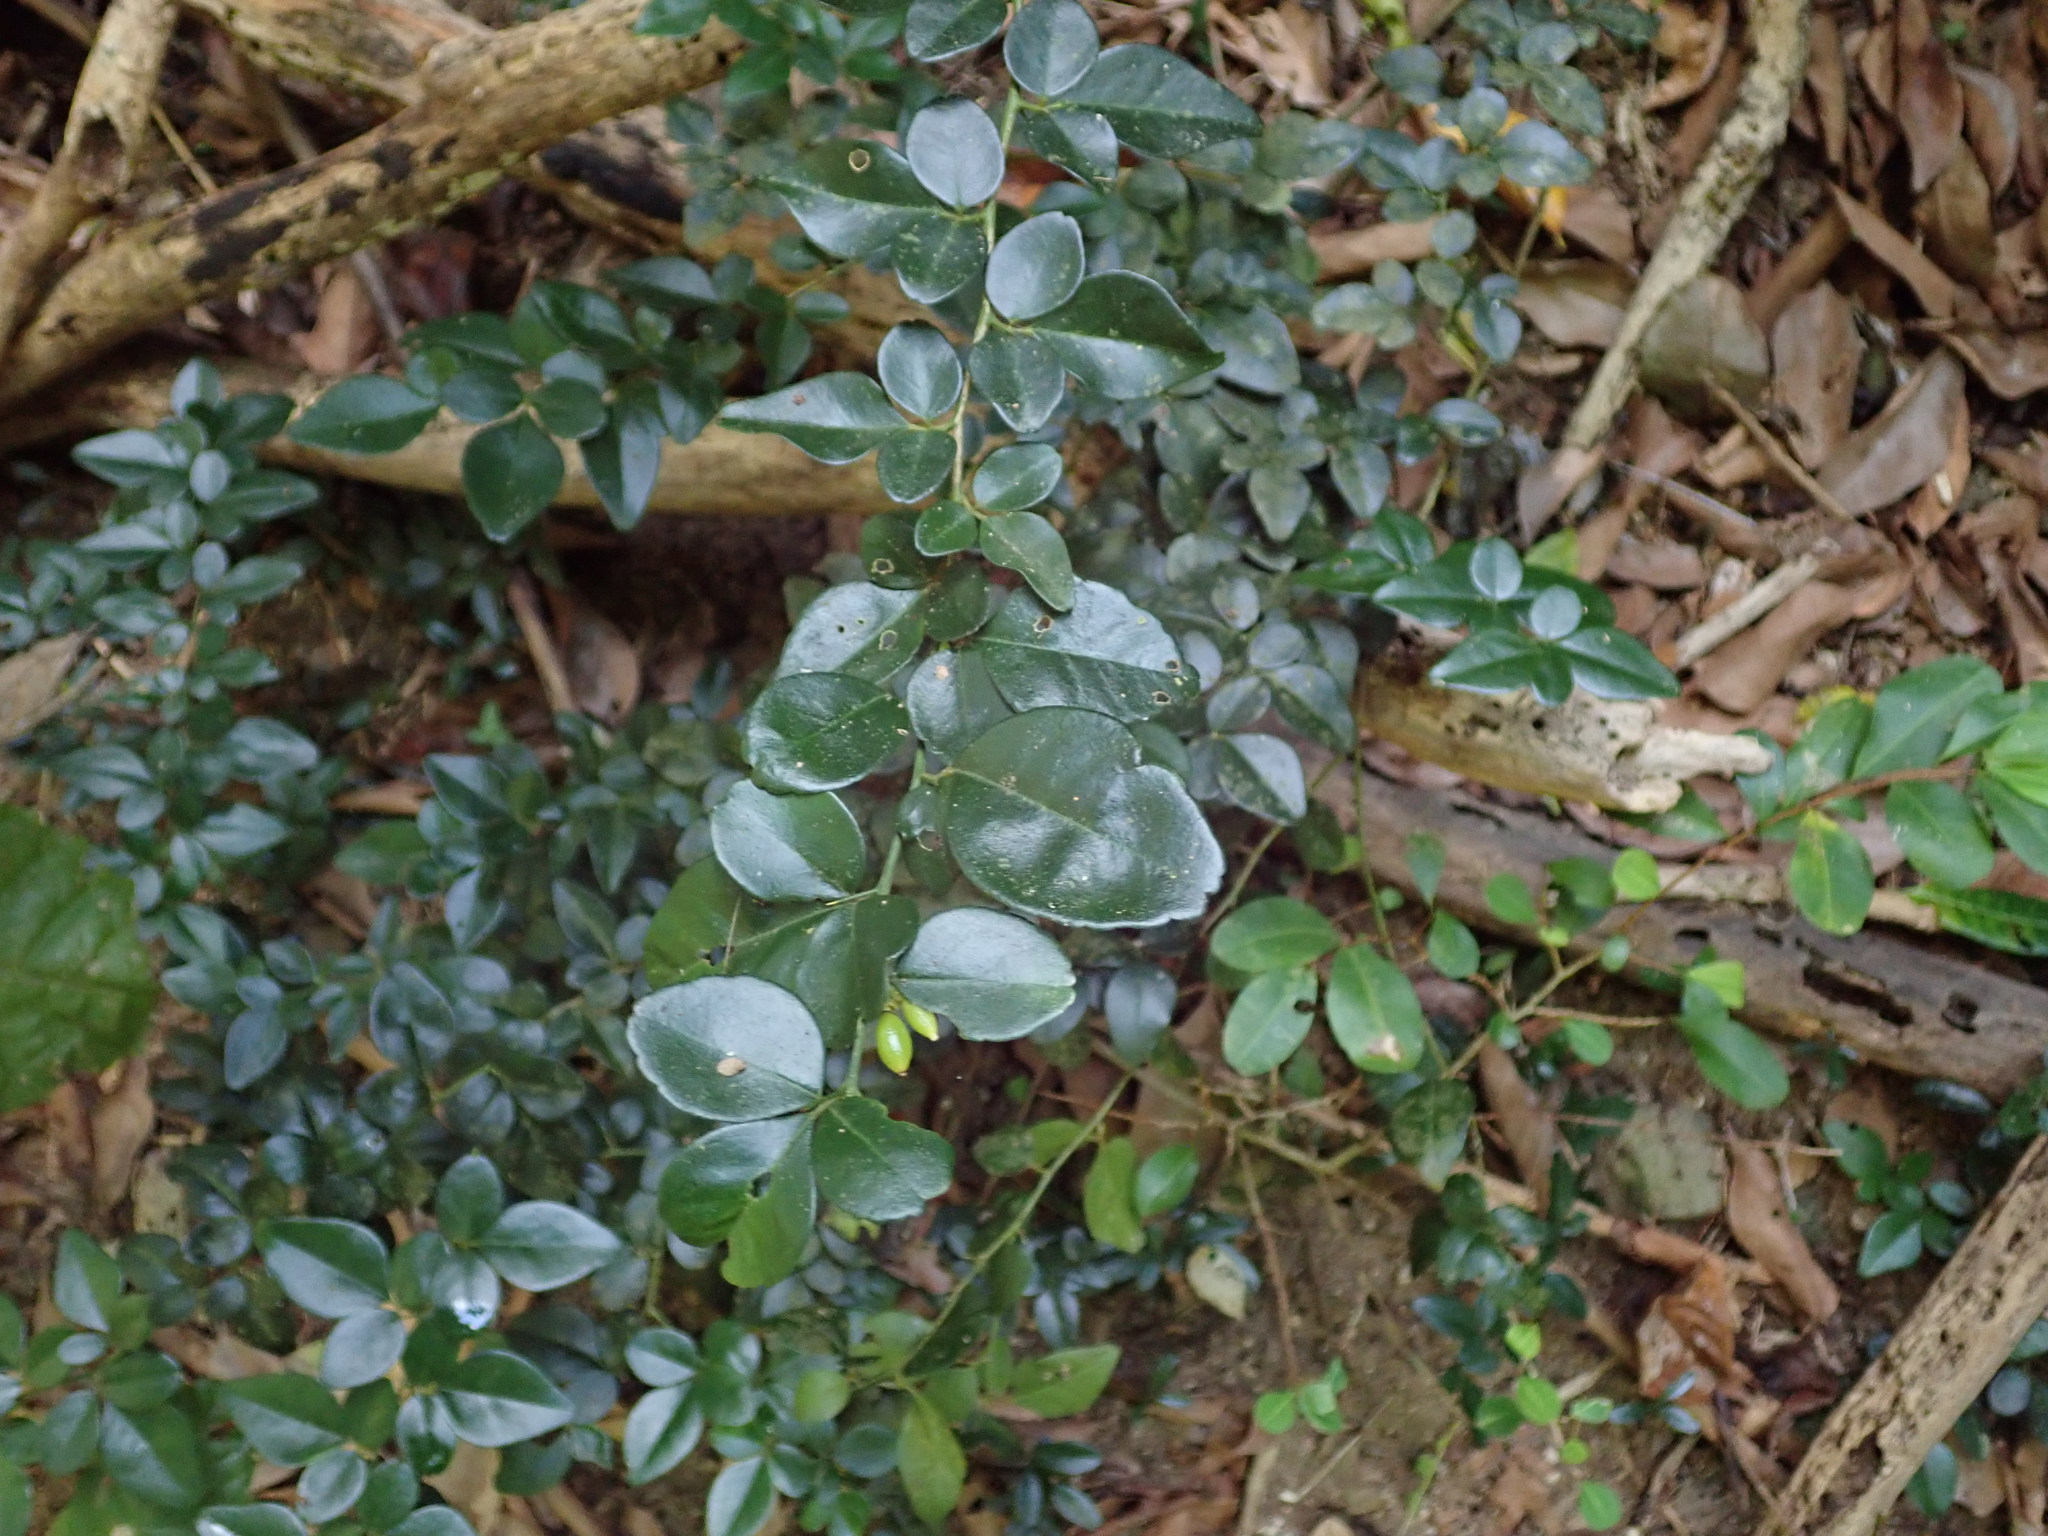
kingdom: Plantae
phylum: Tracheophyta
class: Magnoliopsida
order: Sapindales
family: Rutaceae
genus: Triphasia
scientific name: Triphasia trifolia
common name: Limeberry
